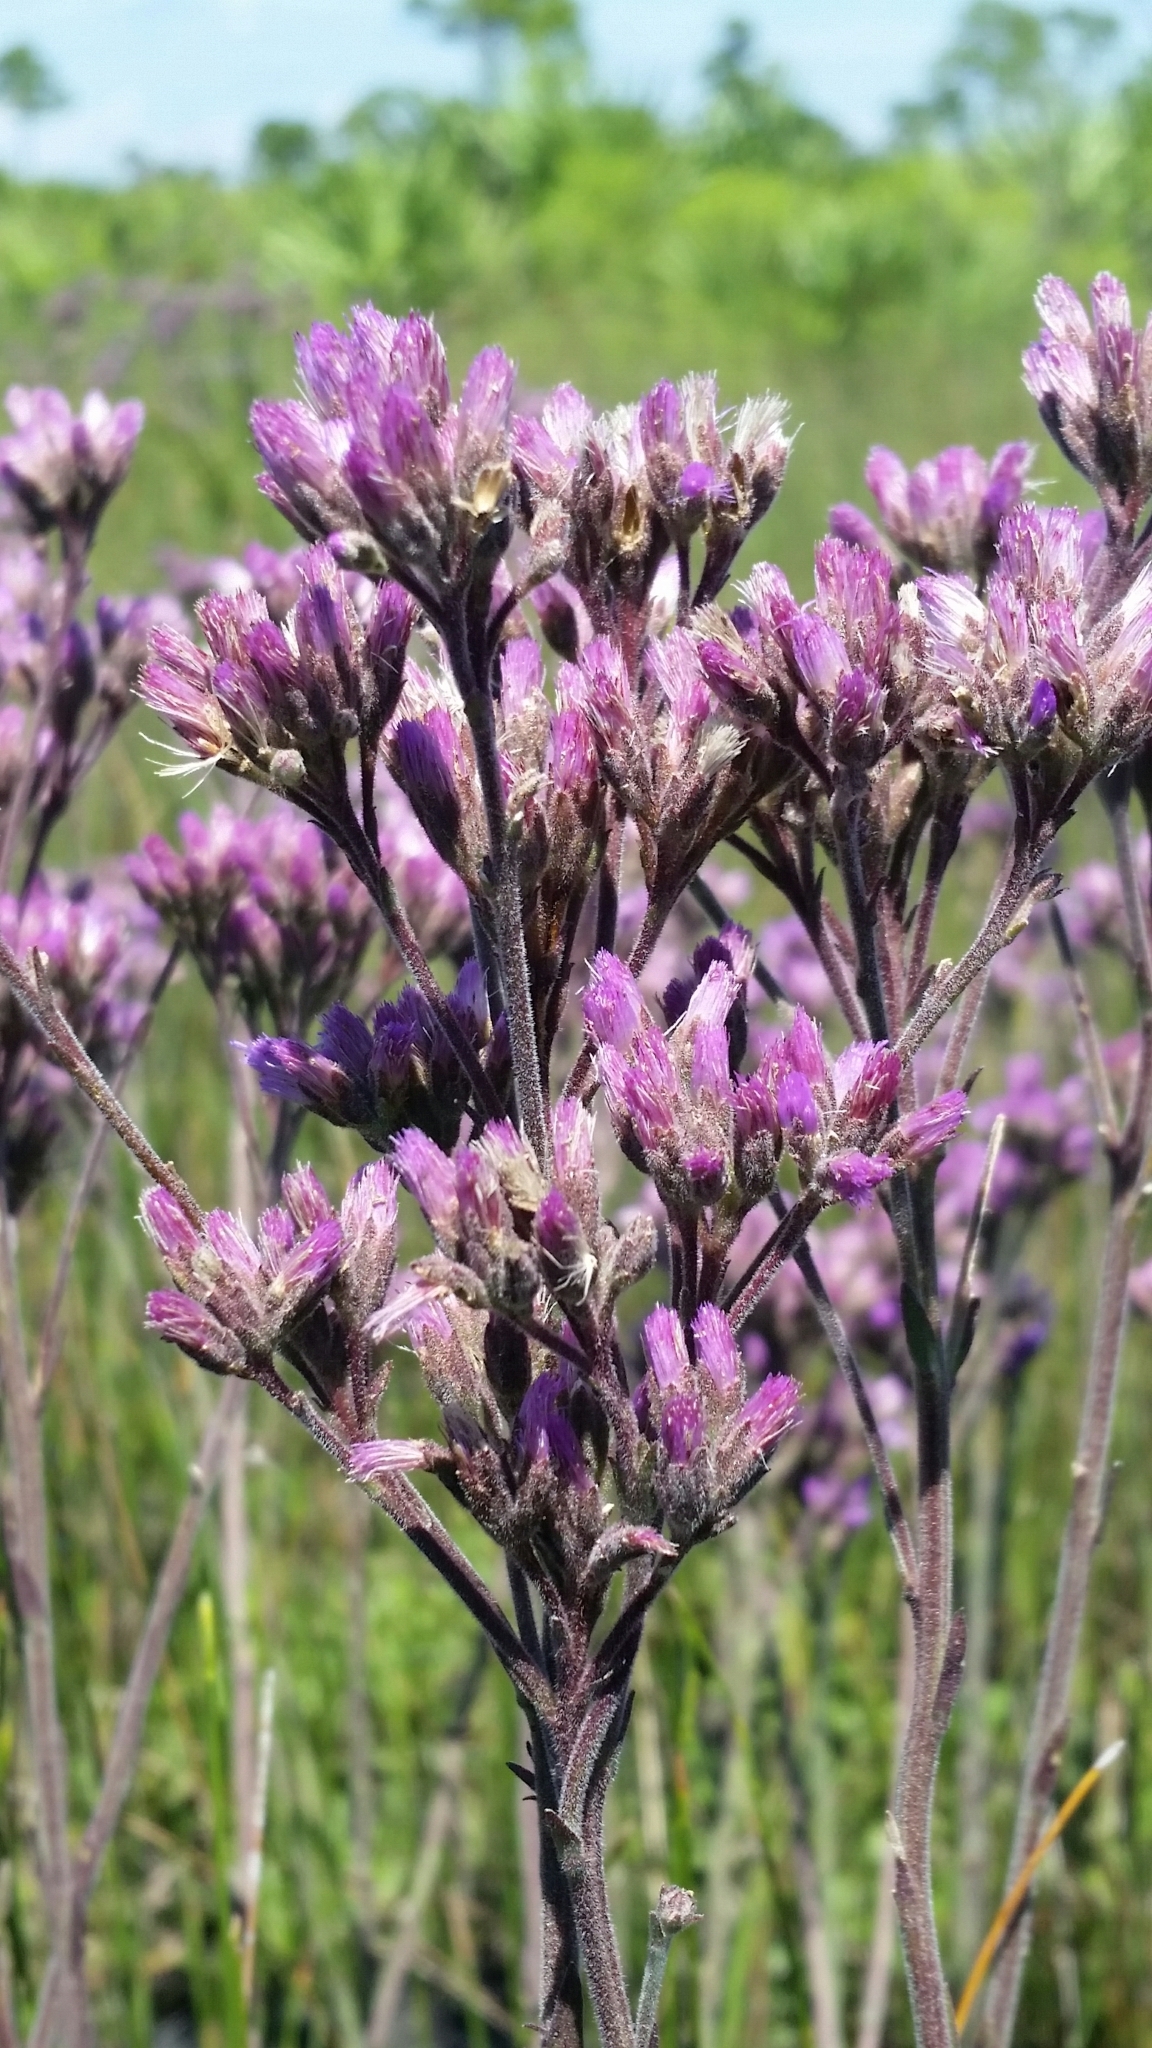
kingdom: Plantae
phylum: Tracheophyta
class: Magnoliopsida
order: Asterales
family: Asteraceae
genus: Carphephorus
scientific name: Carphephorus carnosus
